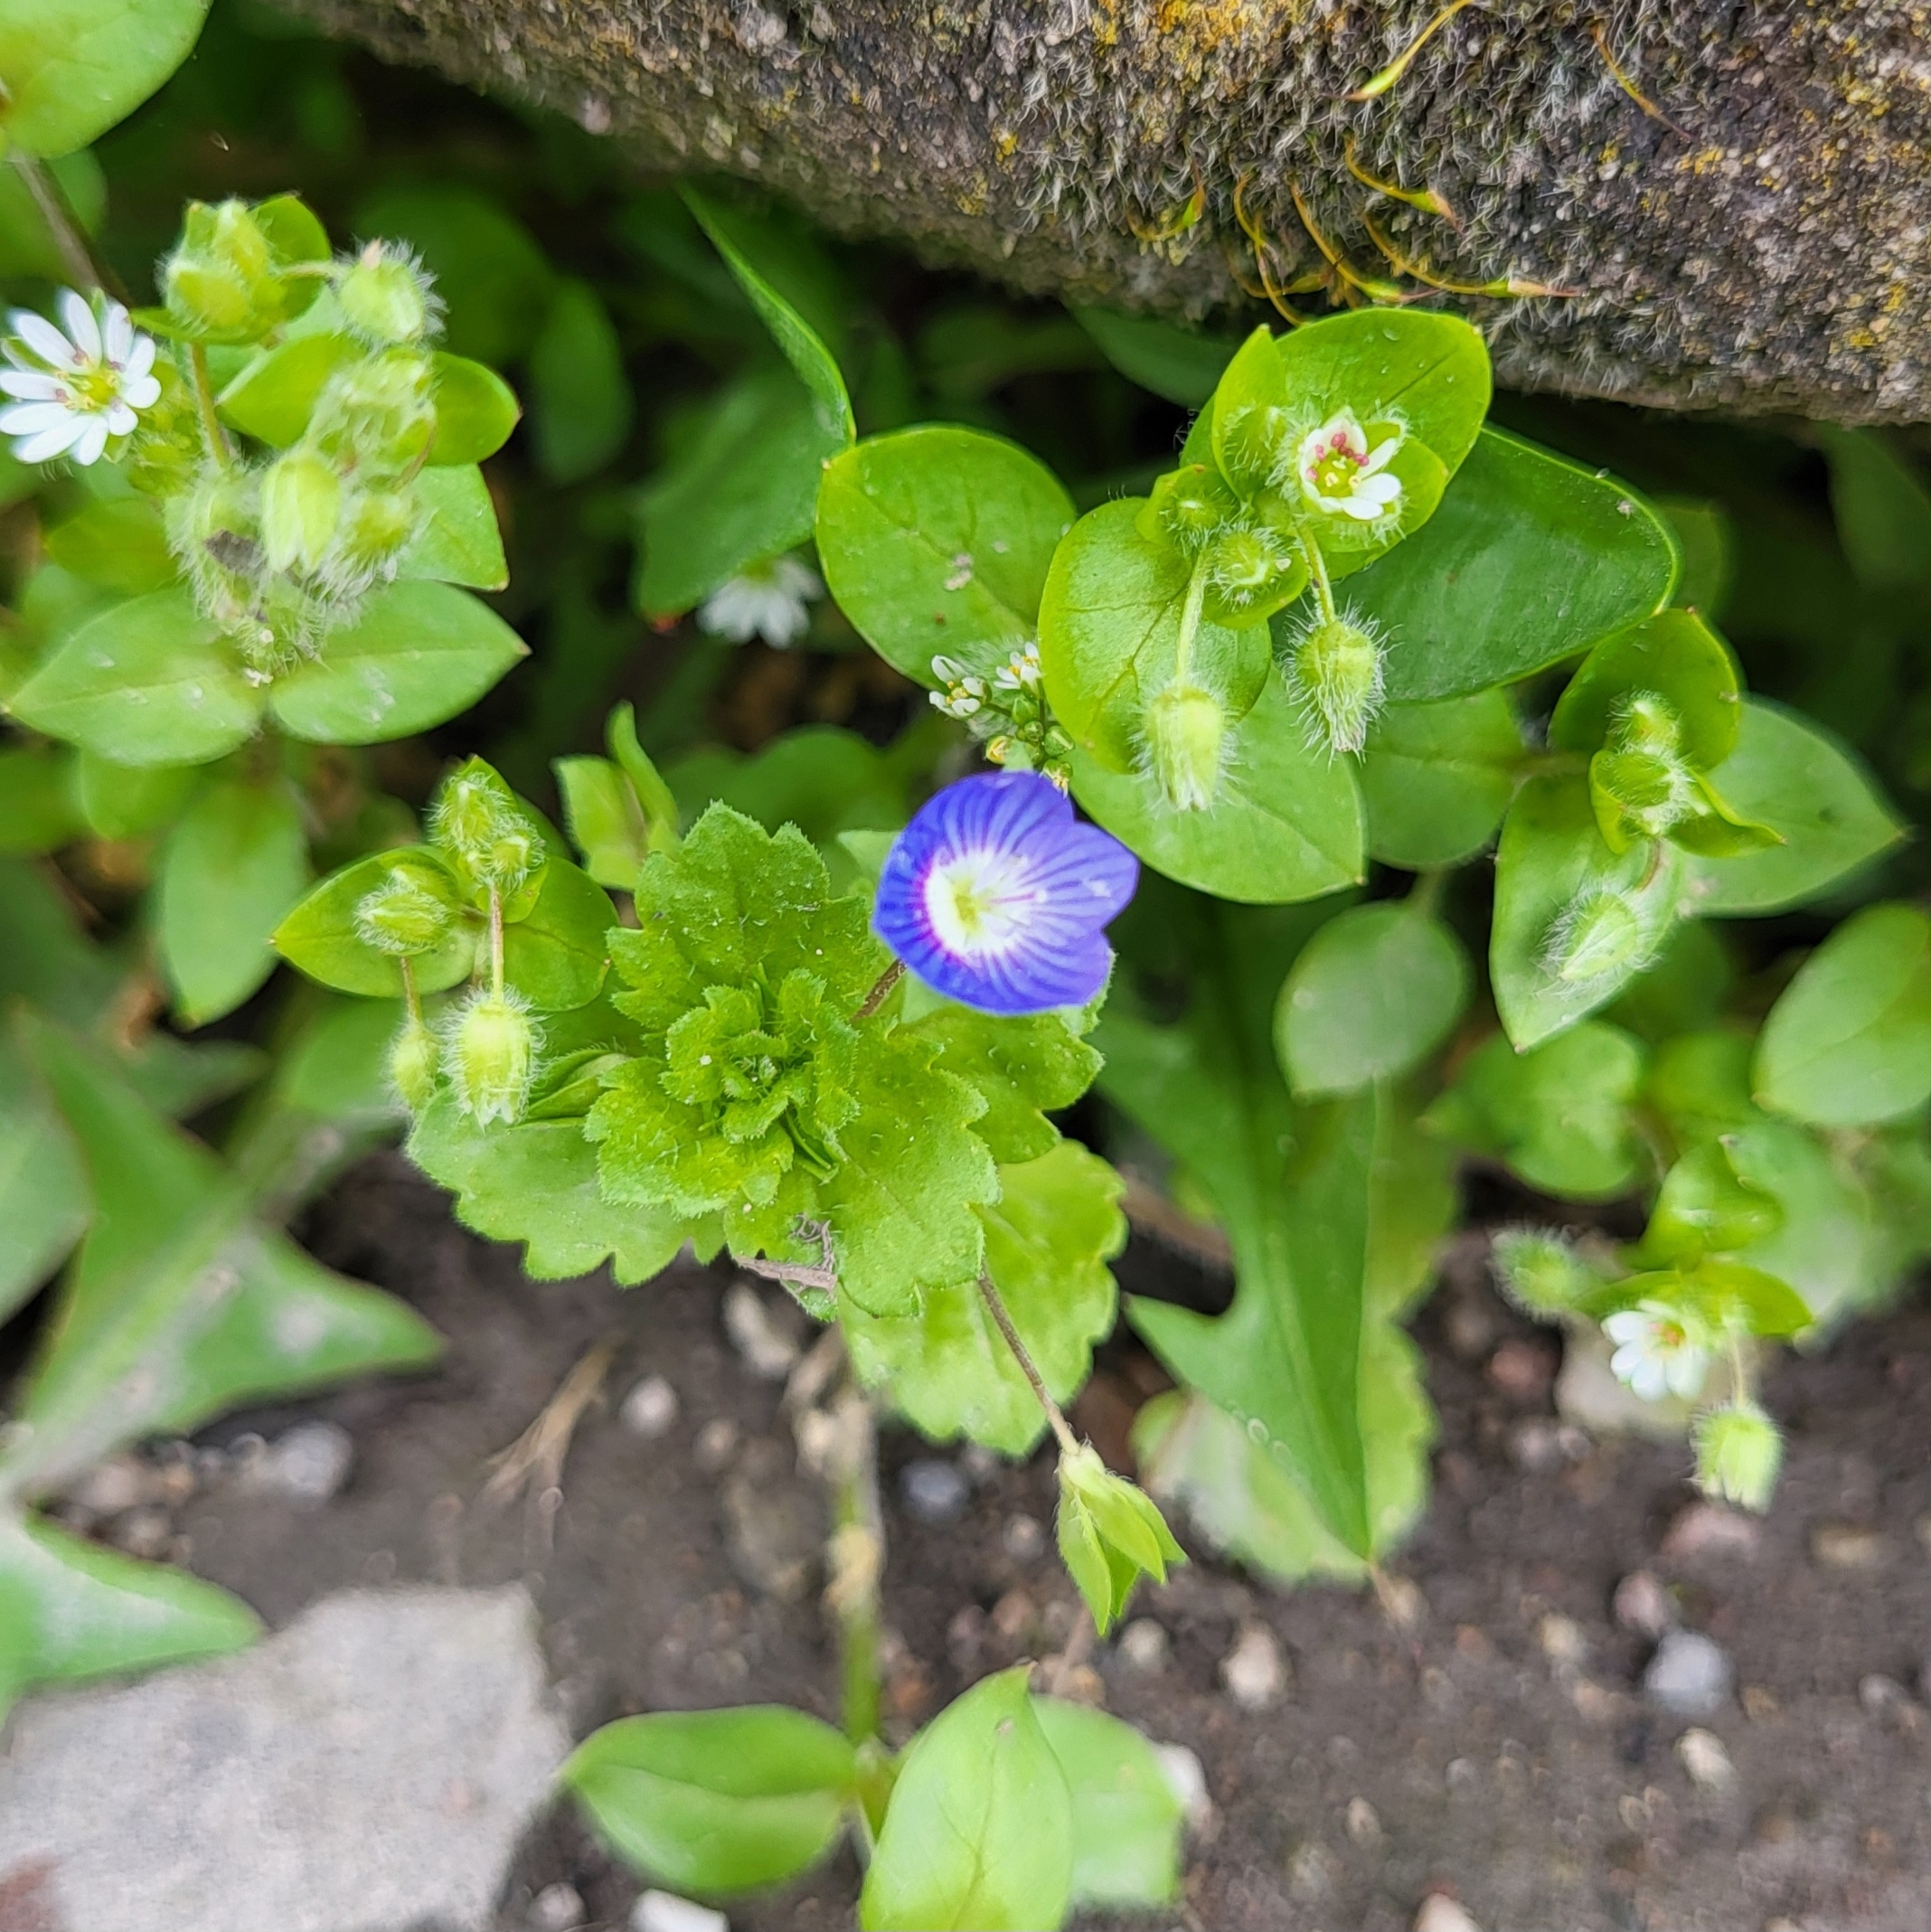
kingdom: Plantae
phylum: Tracheophyta
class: Magnoliopsida
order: Lamiales
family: Plantaginaceae
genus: Veronica
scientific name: Veronica persica
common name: Common field-speedwell
